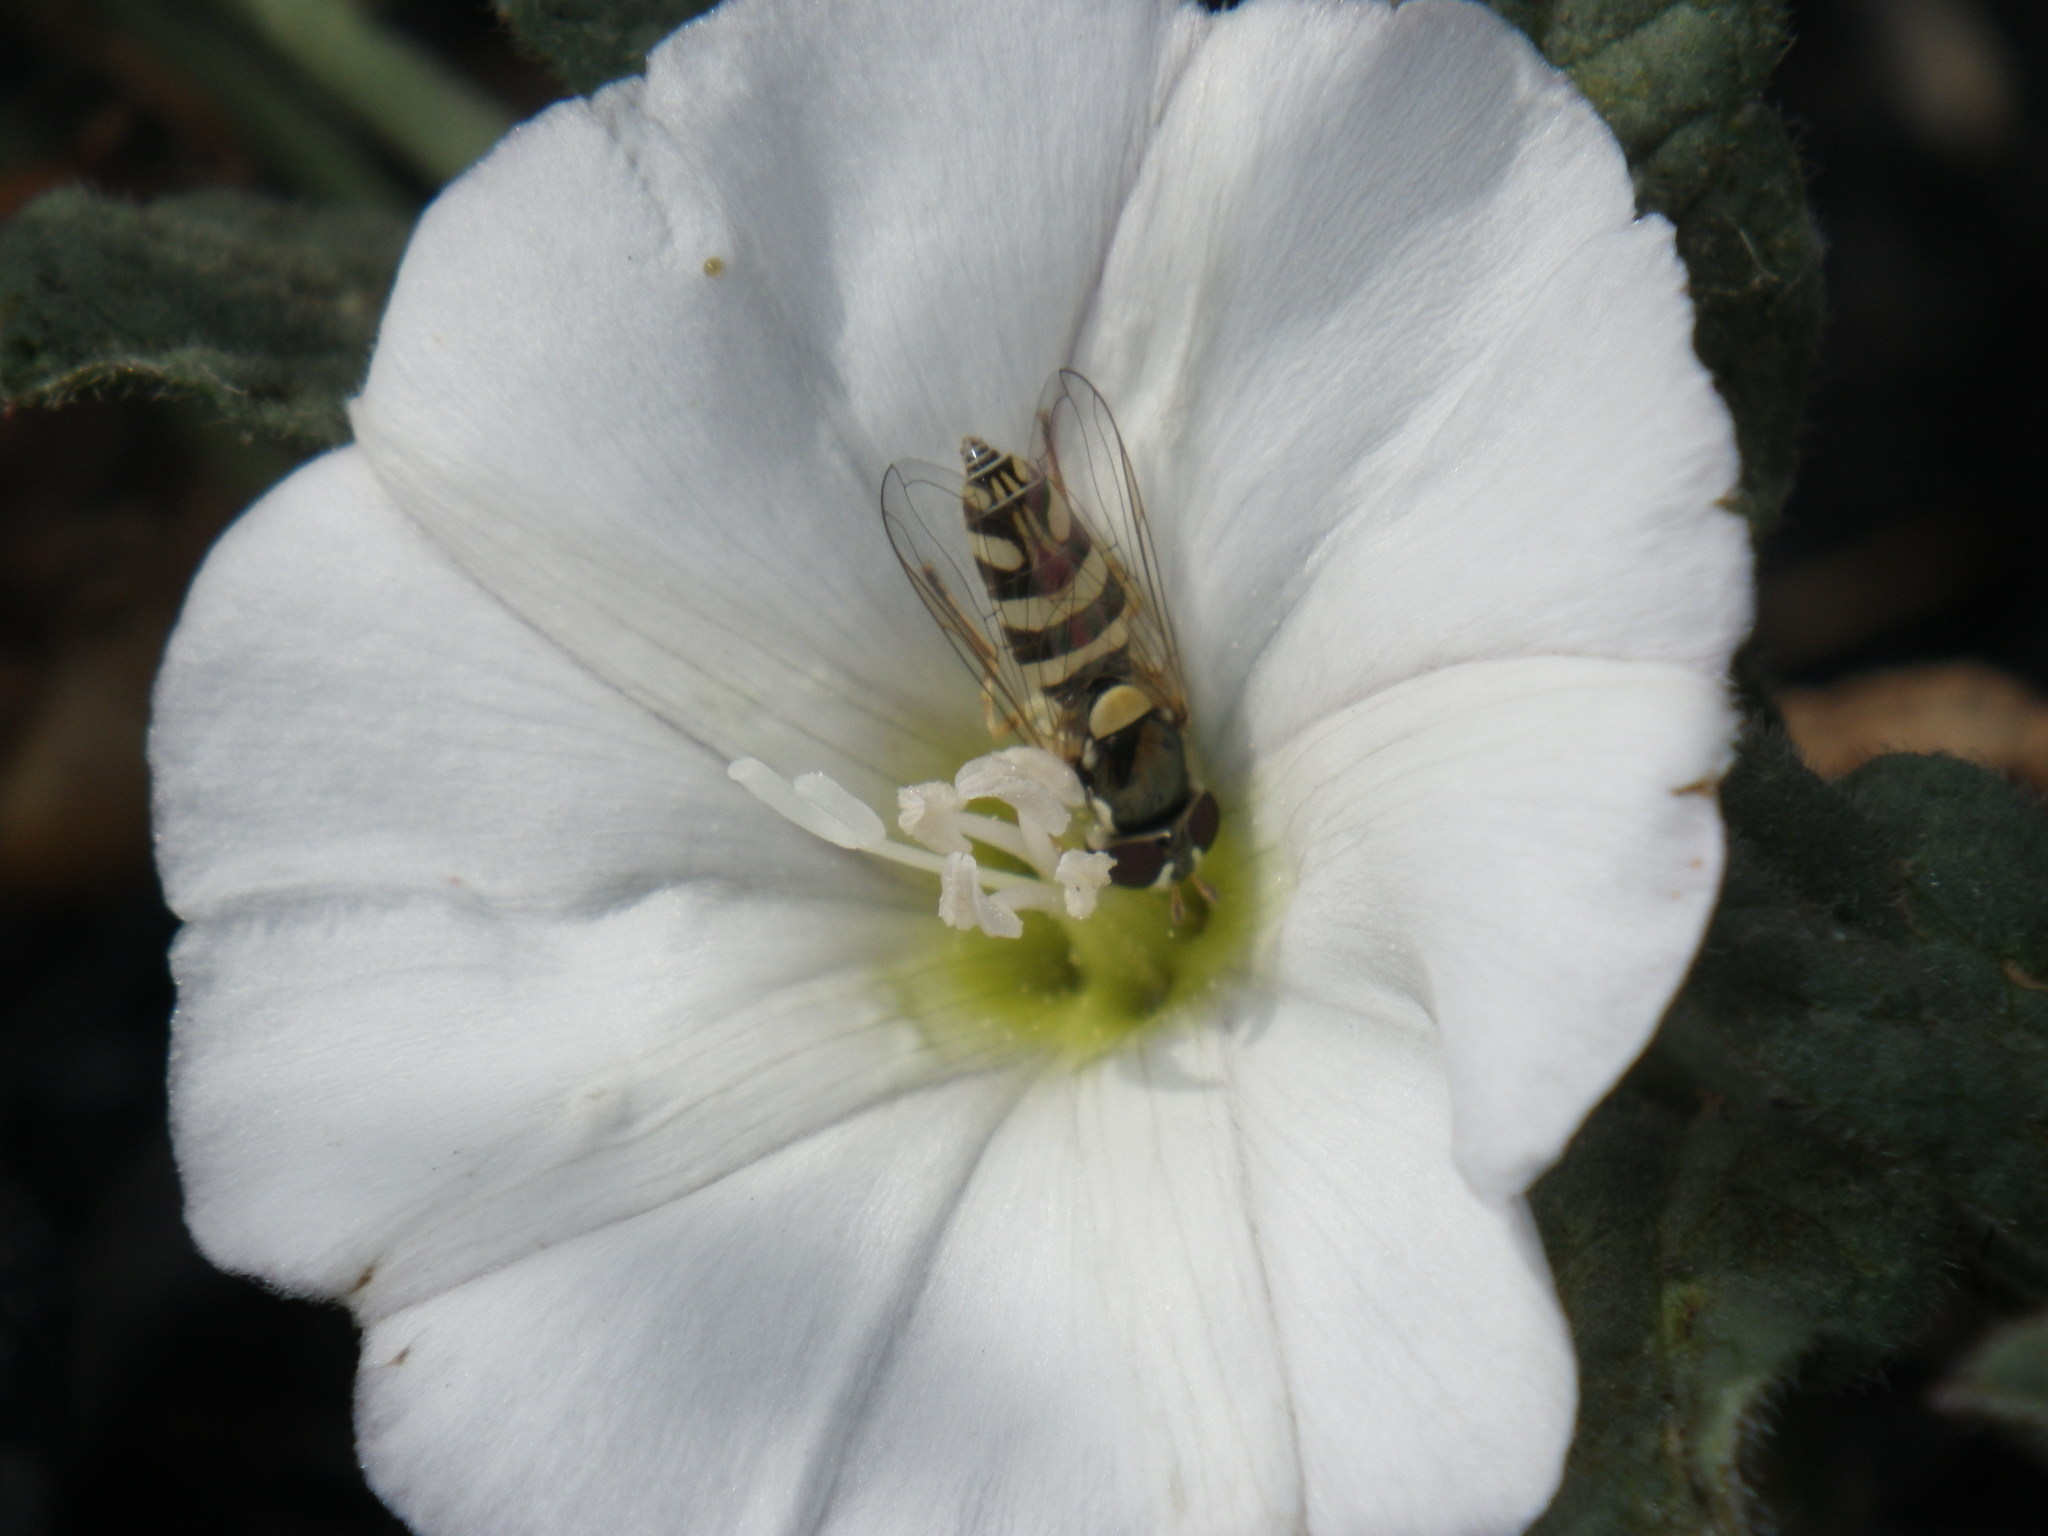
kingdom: Animalia
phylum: Arthropoda
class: Insecta
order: Diptera
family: Syrphidae
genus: Allograpta
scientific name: Allograpta exotica
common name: Syrphid fly
